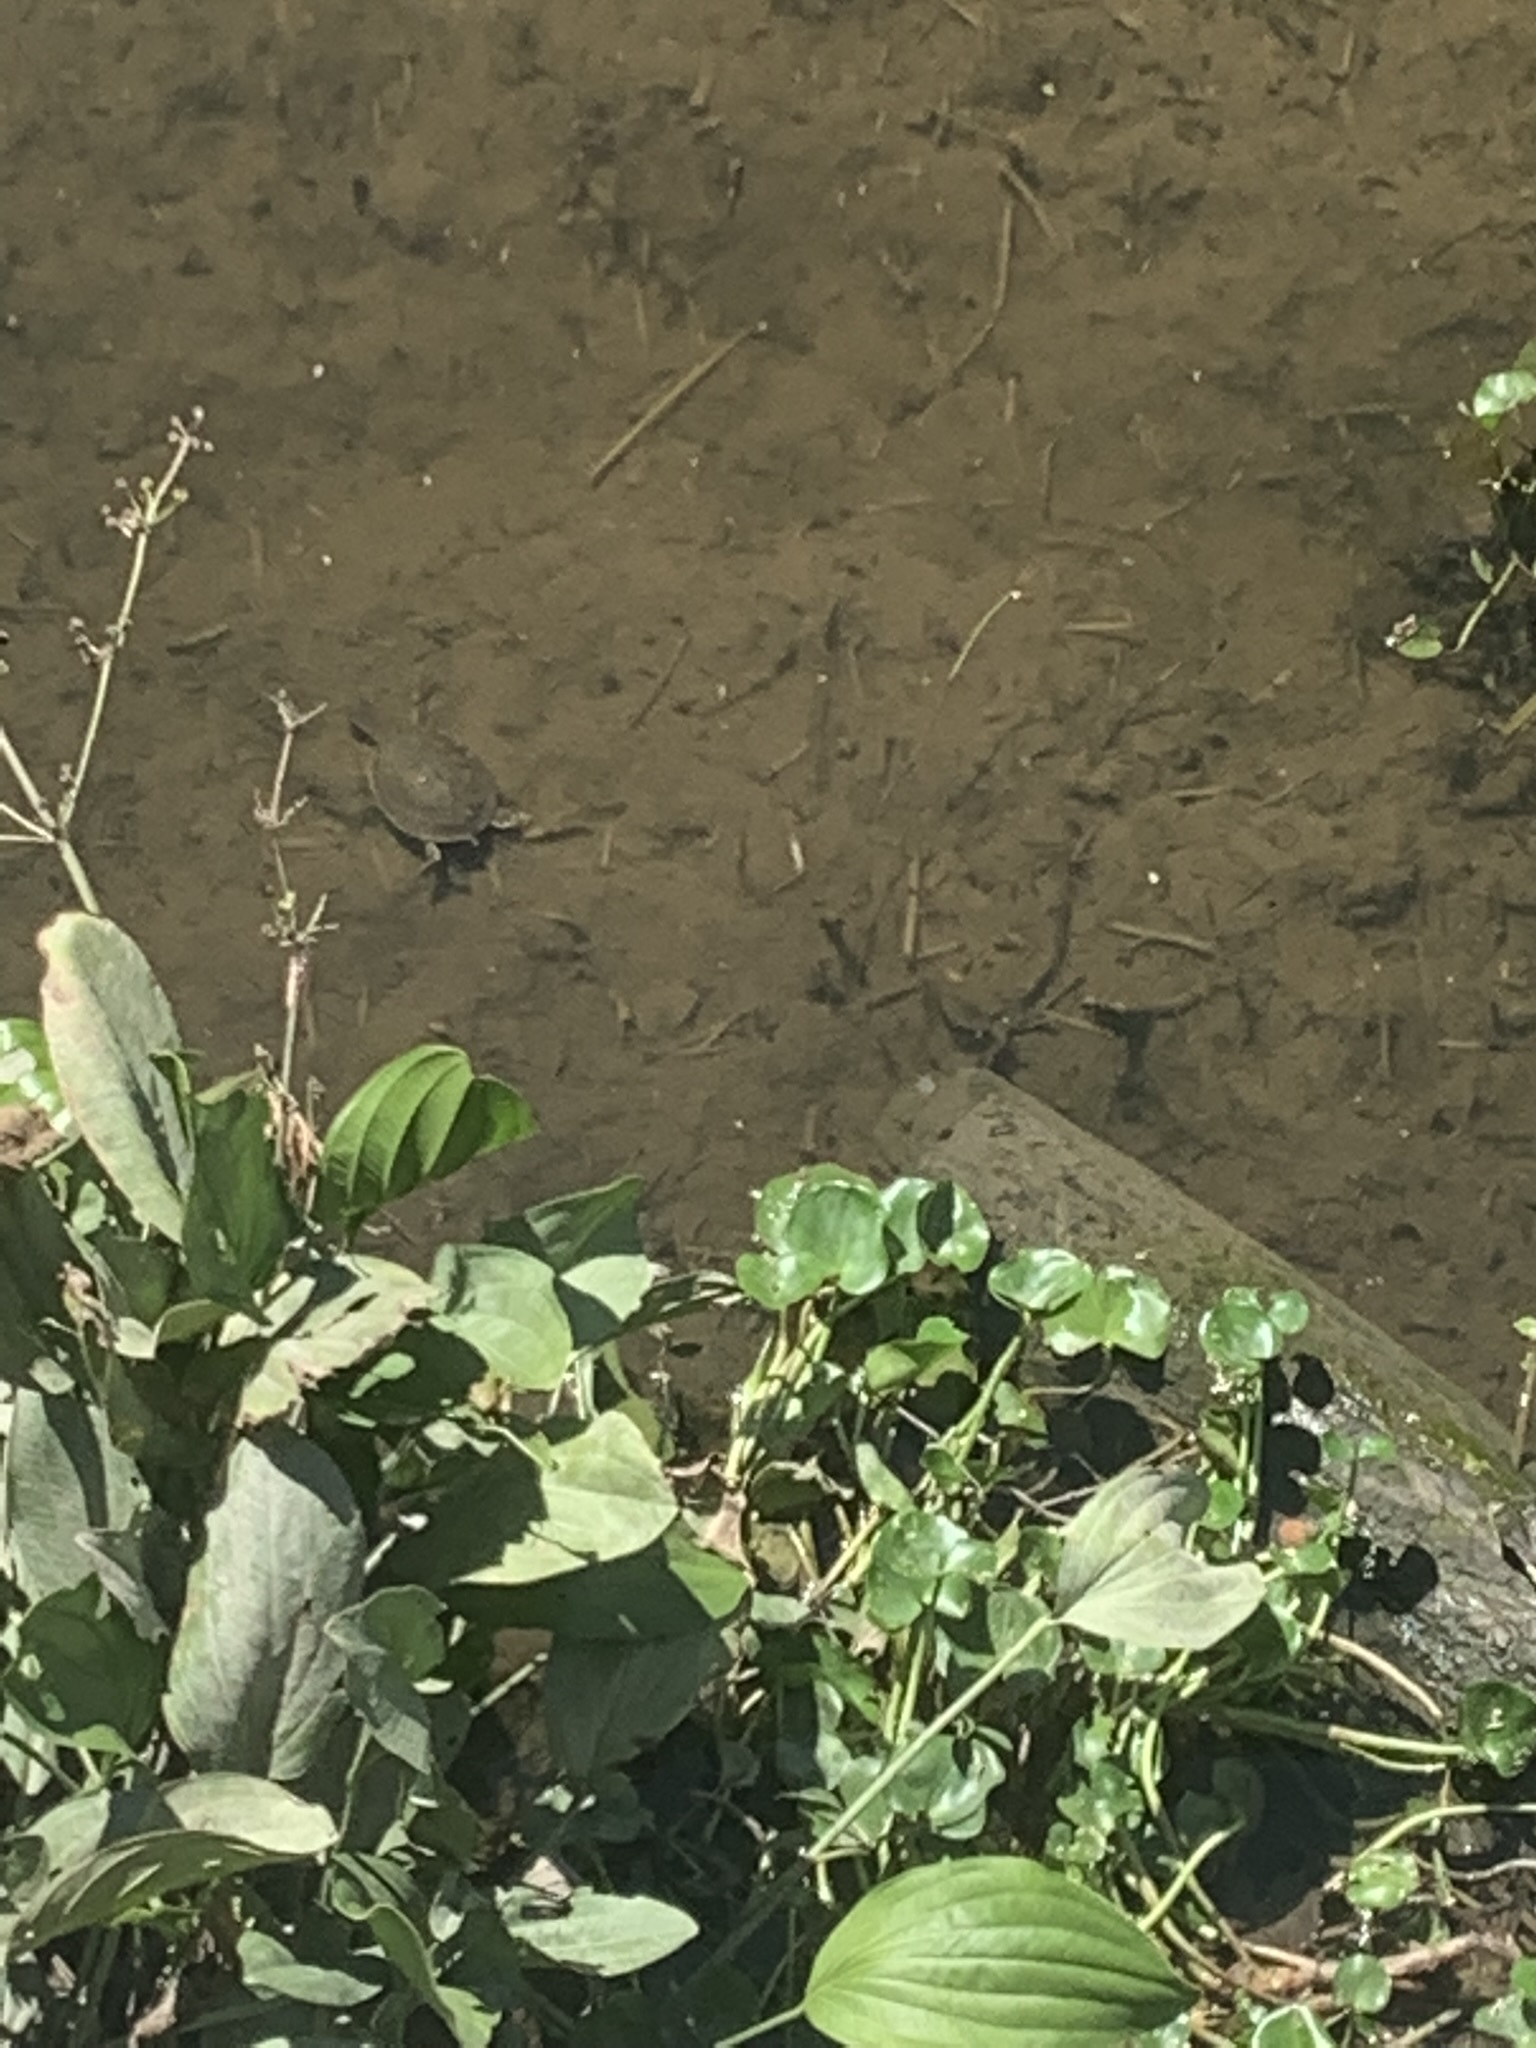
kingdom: Animalia
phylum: Chordata
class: Testudines
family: Chelidae
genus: Phrynops
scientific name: Phrynops hilarii
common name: Side-necked turtle of saint hillaire
